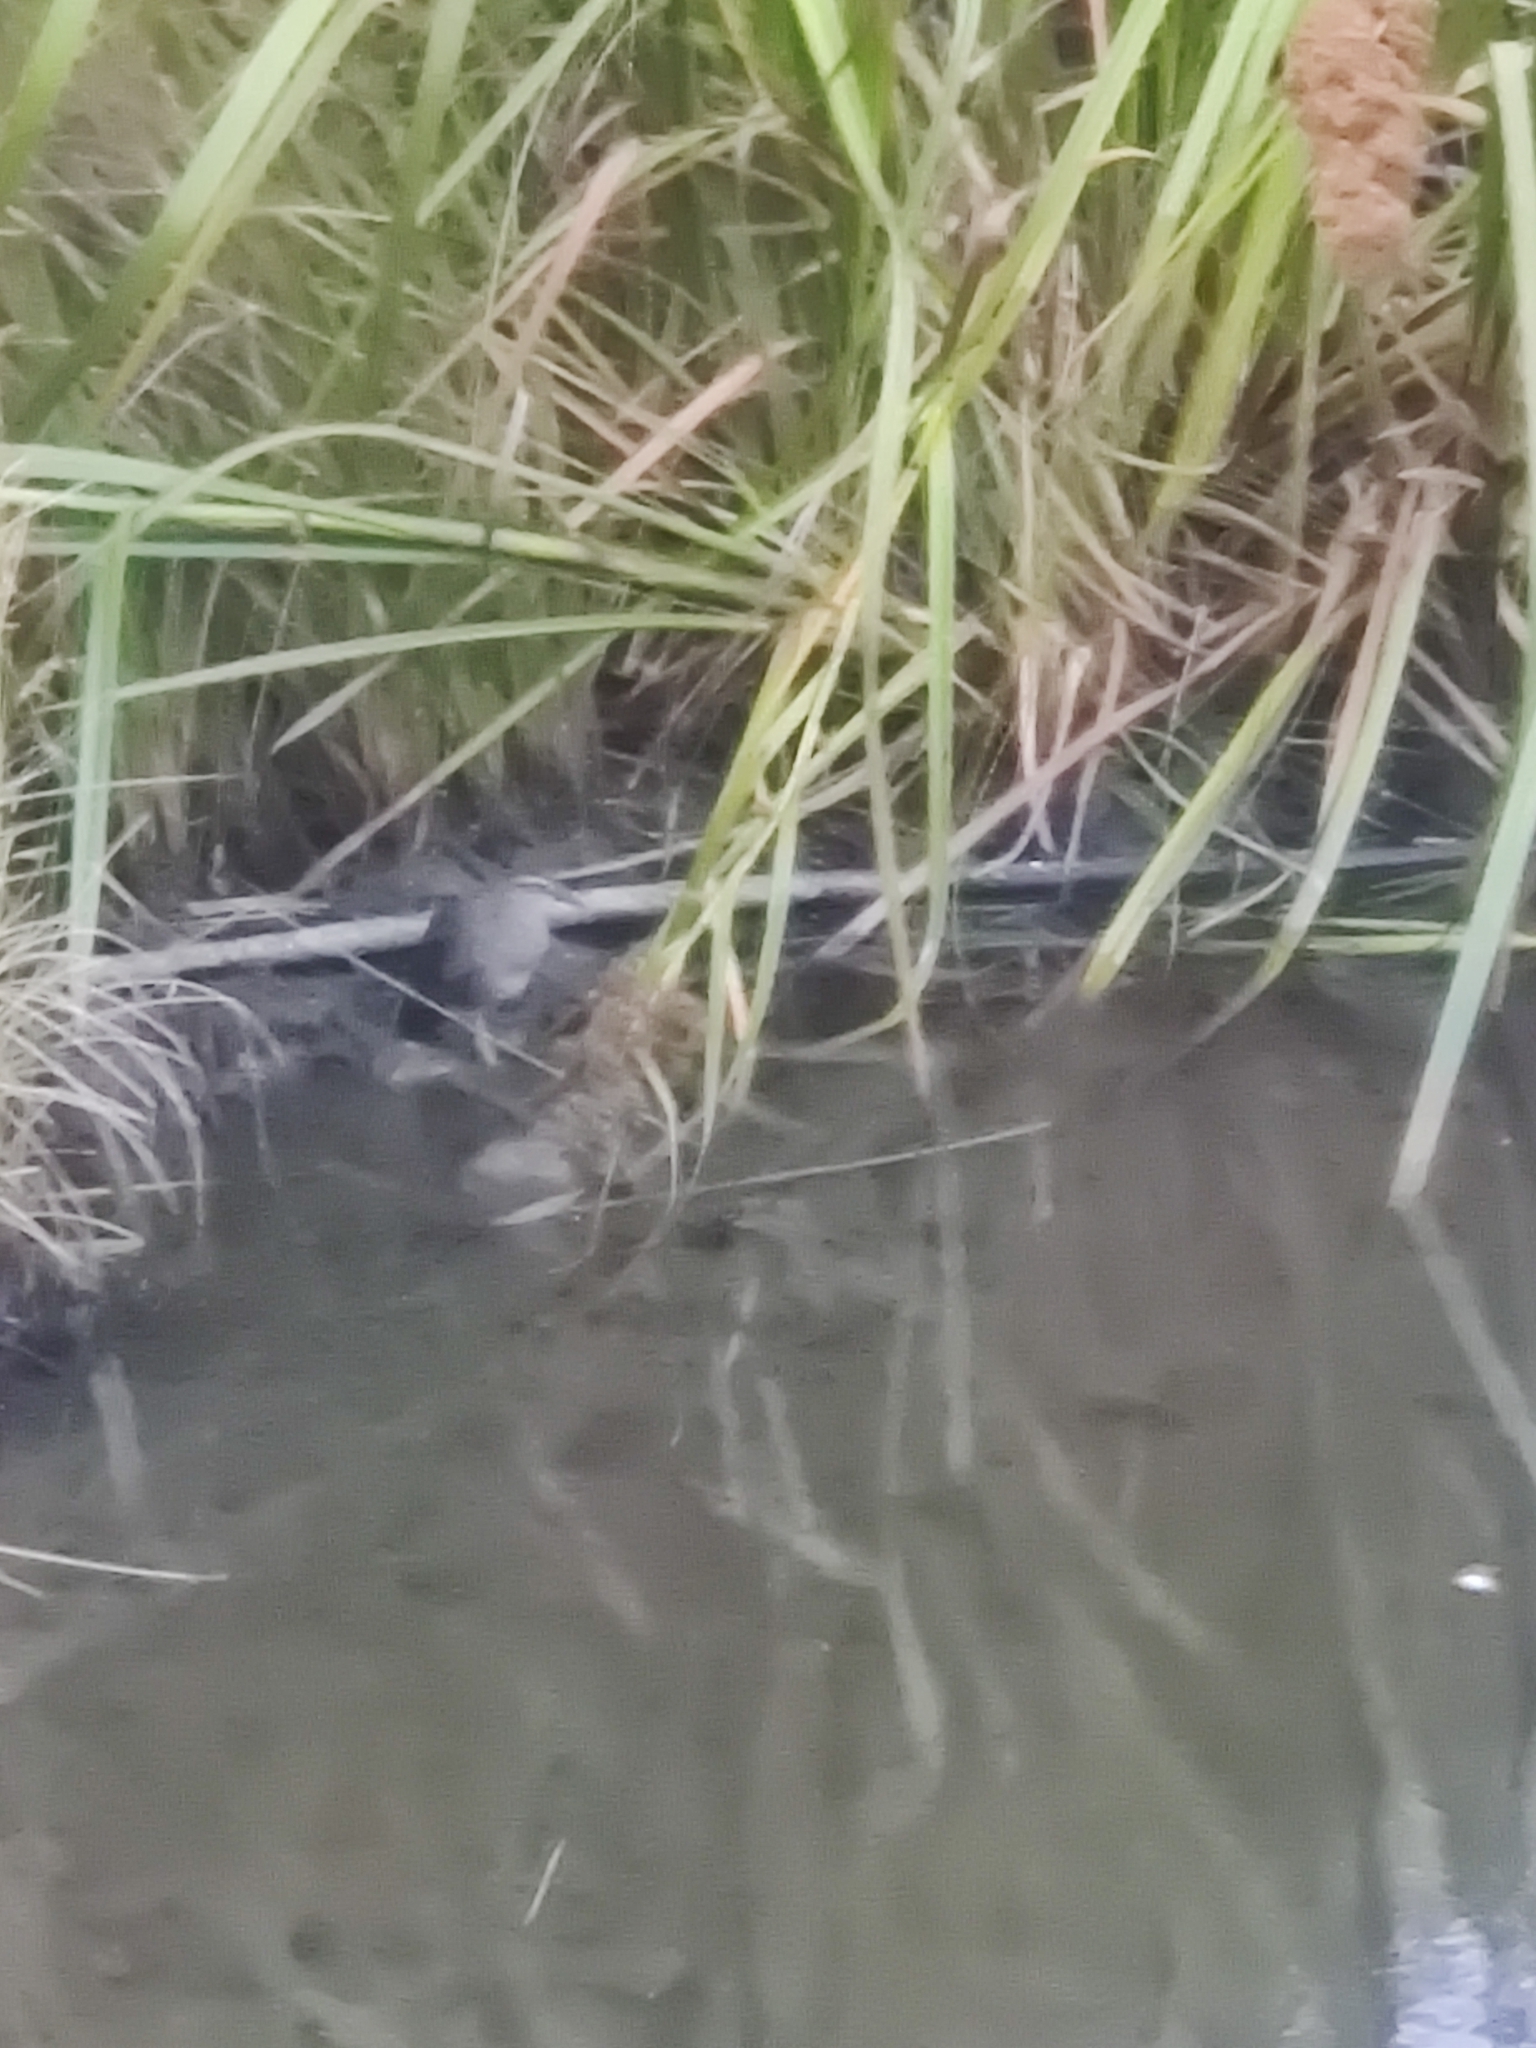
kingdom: Animalia
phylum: Chordata
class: Aves
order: Gruiformes
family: Rallidae
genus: Gallirallus
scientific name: Gallirallus philippensis
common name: Buff-banded rail
